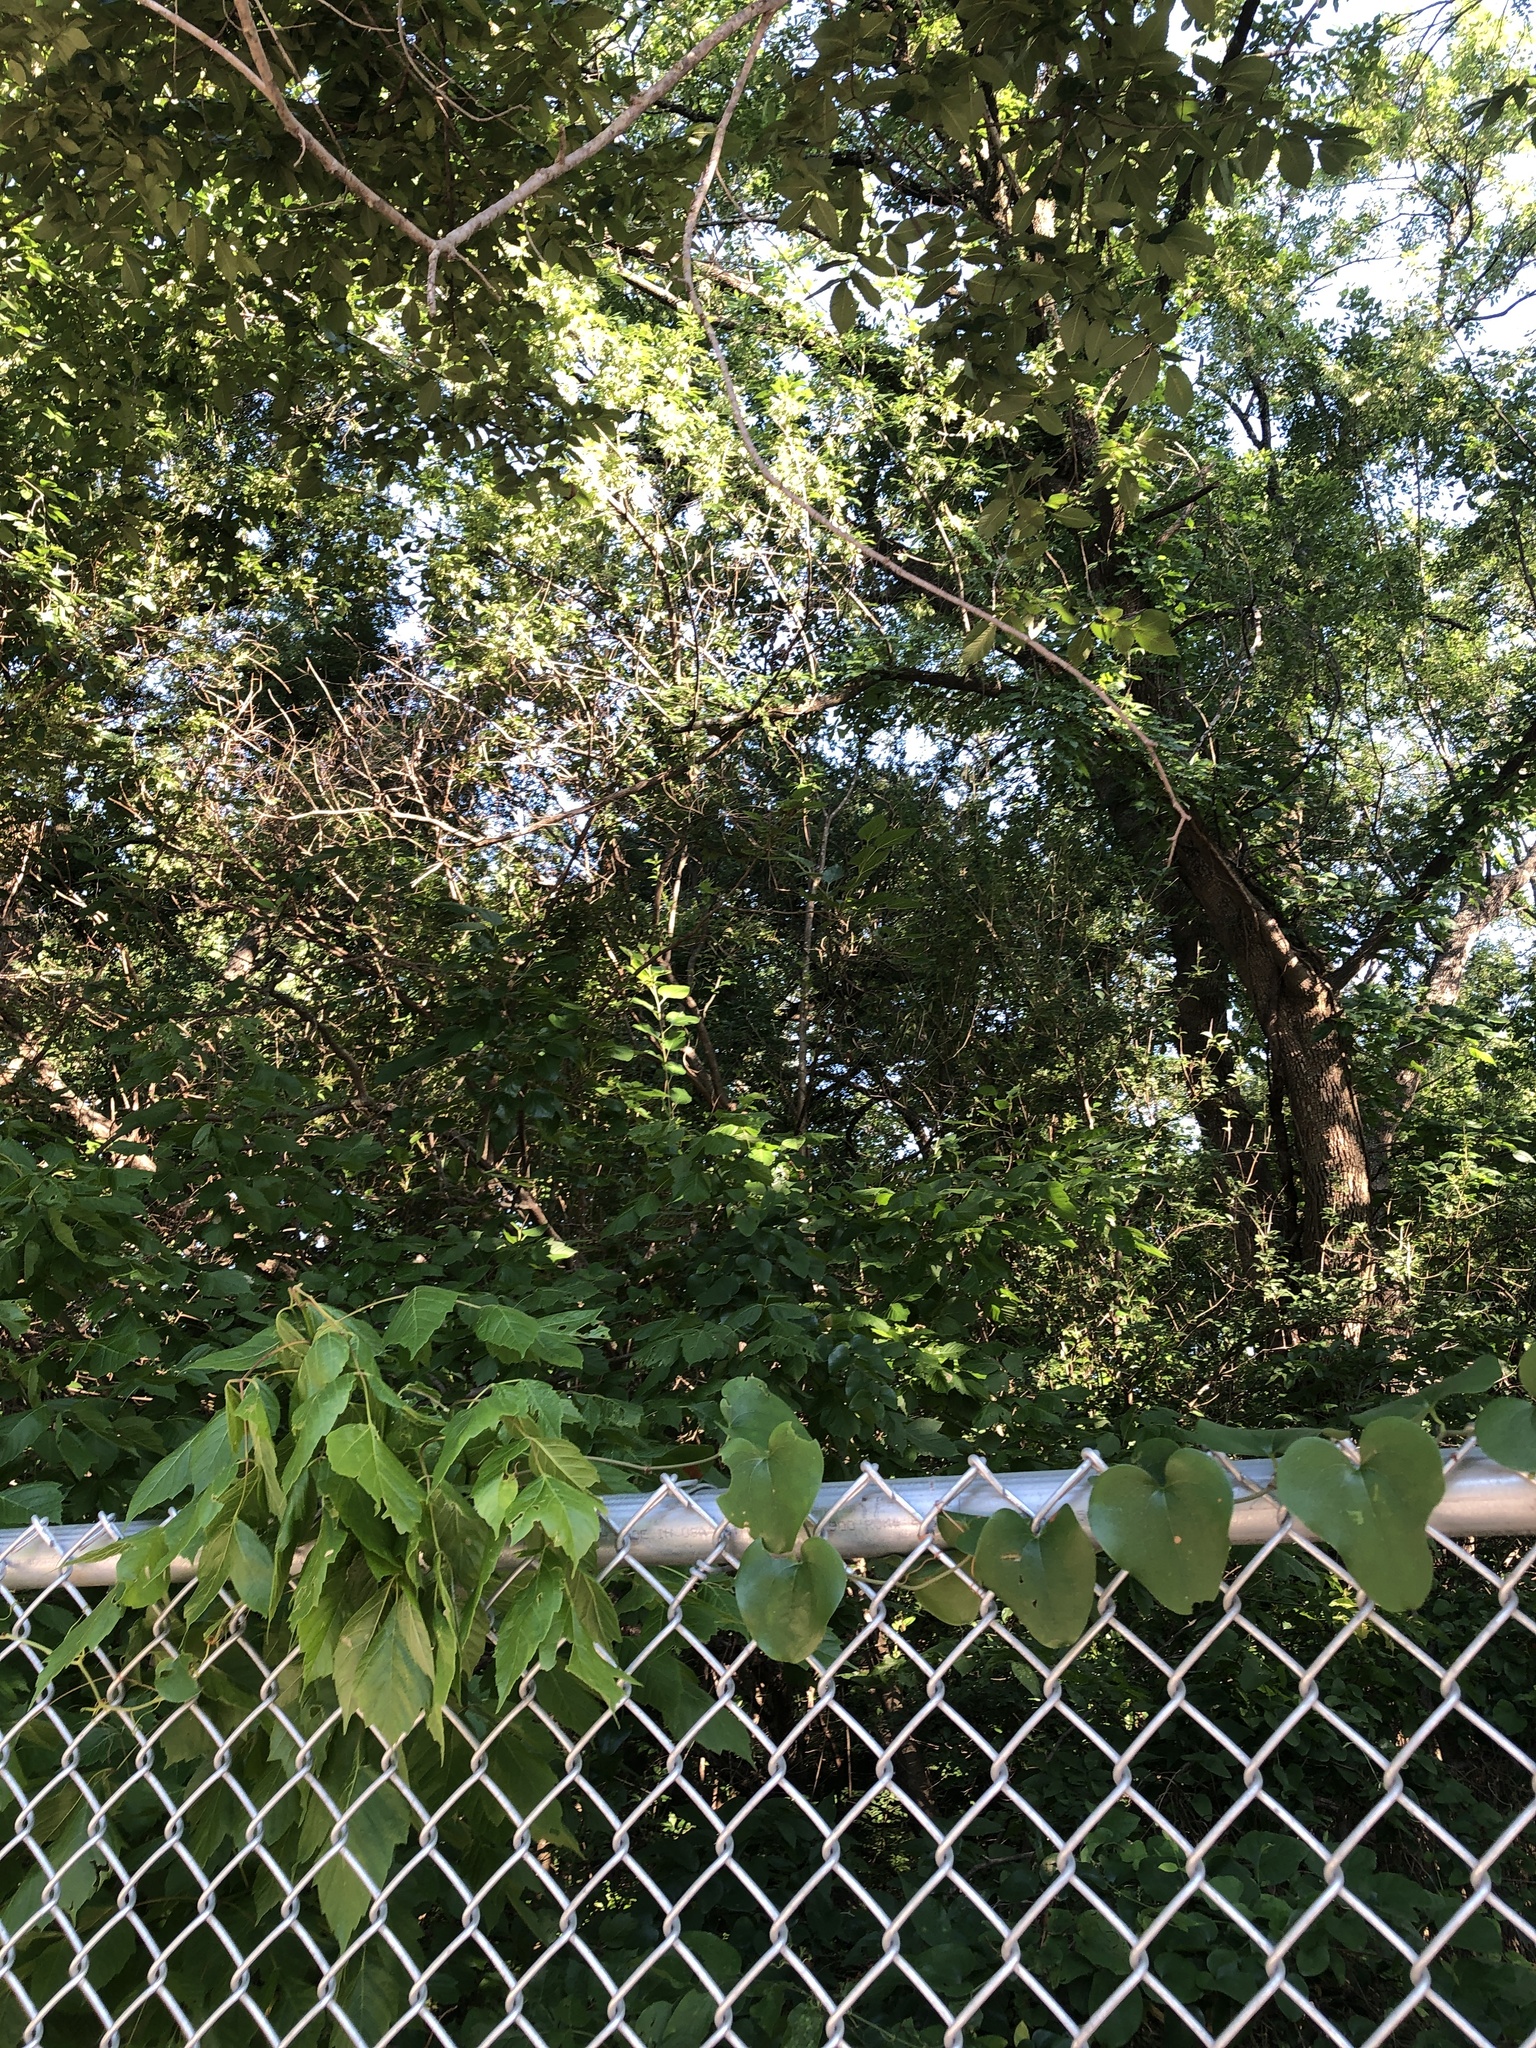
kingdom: Animalia
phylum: Chordata
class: Aves
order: Passeriformes
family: Tyrannidae
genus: Sayornis
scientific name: Sayornis phoebe
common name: Eastern phoebe
